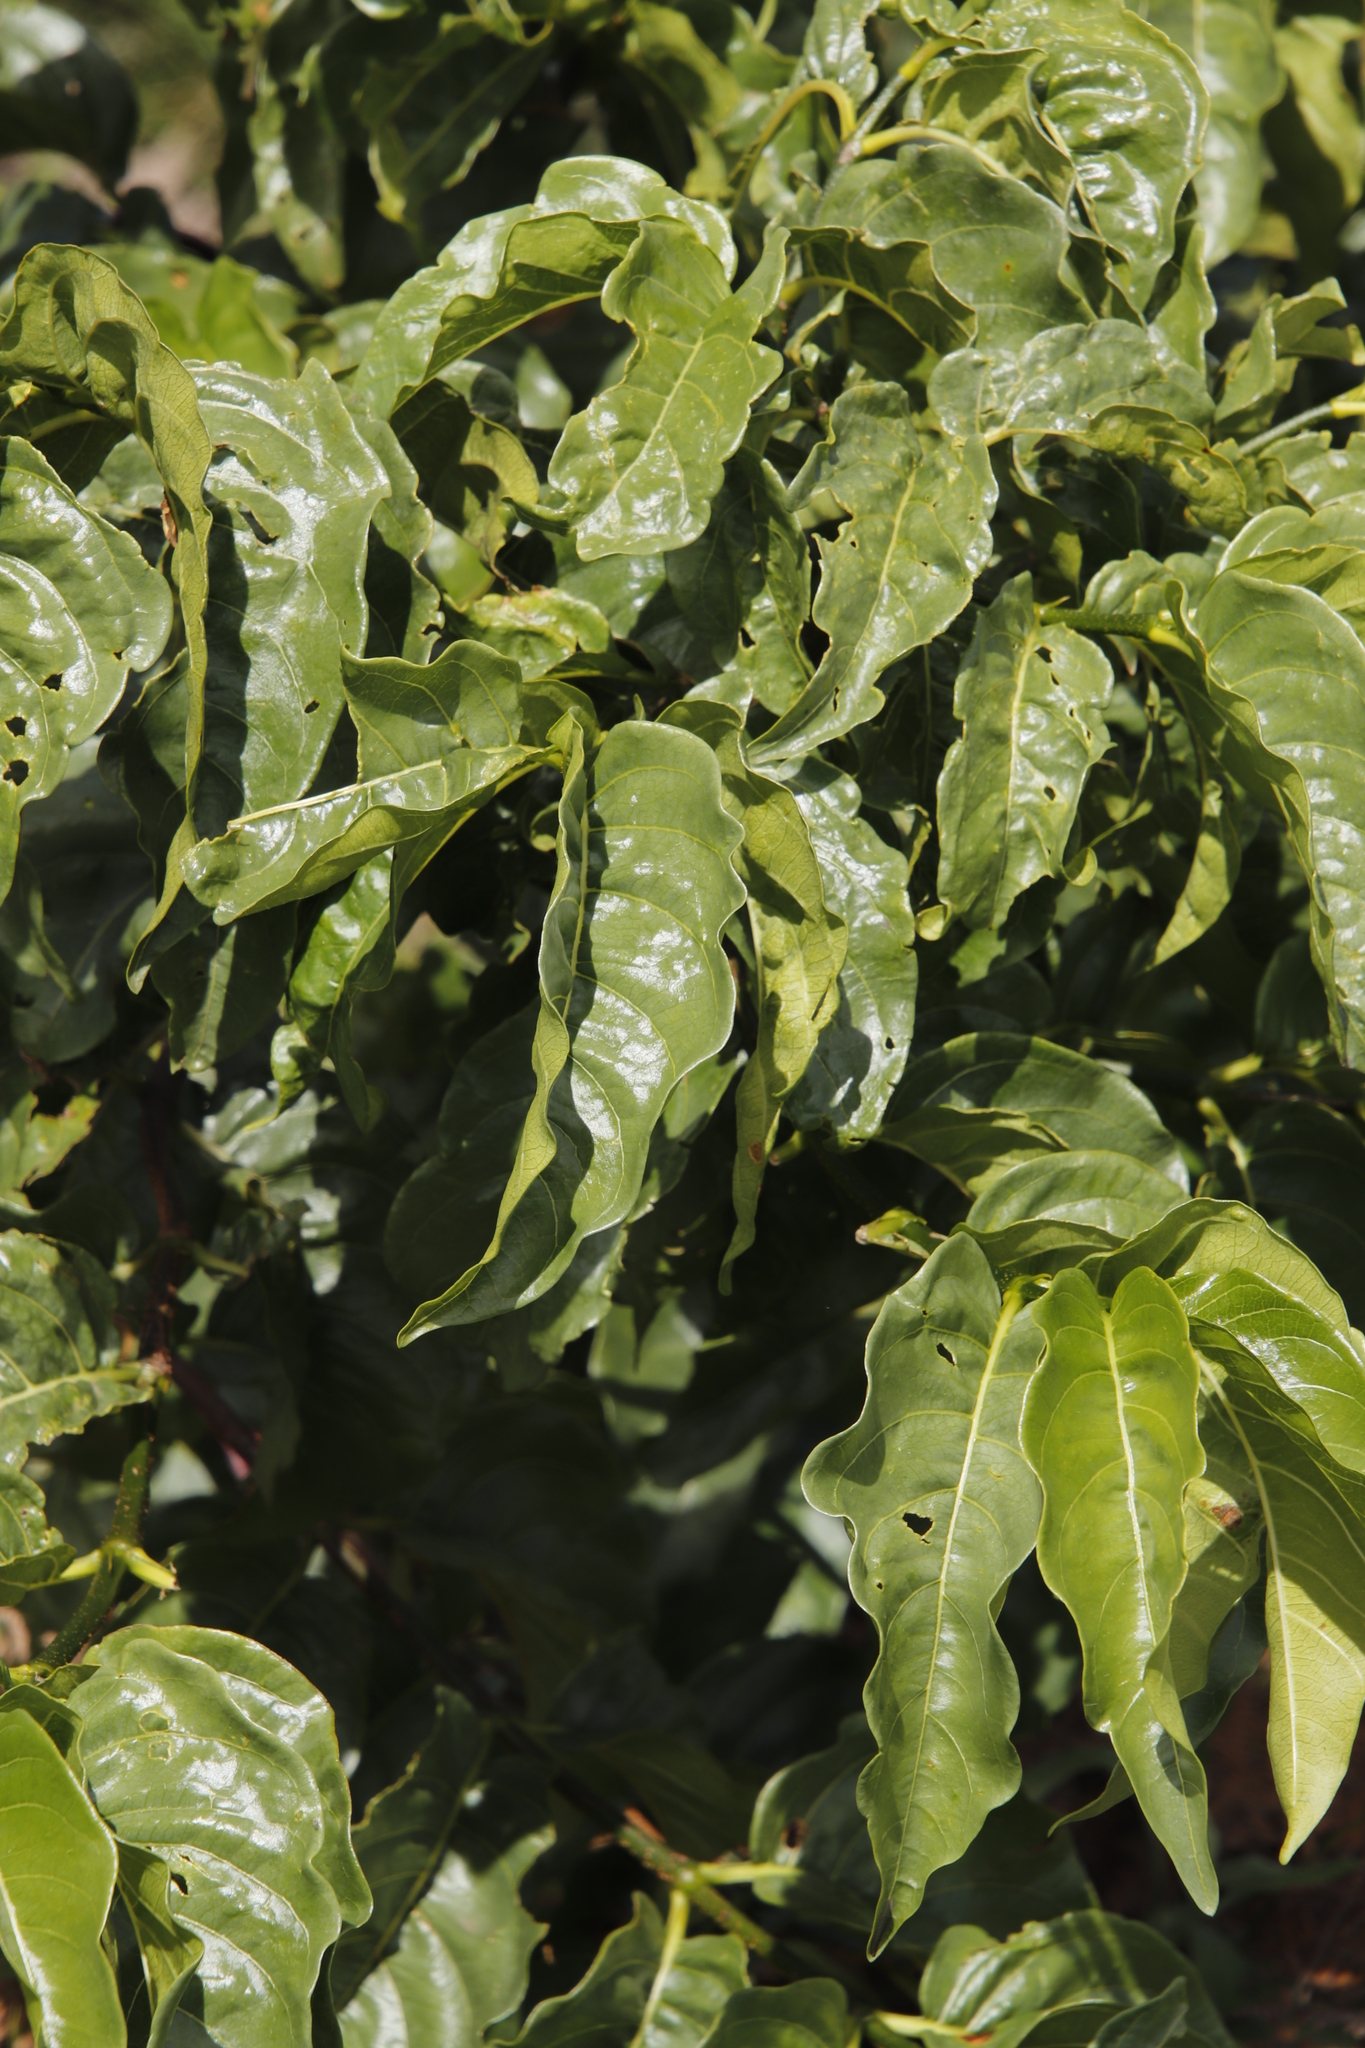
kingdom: Plantae
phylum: Tracheophyta
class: Magnoliopsida
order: Gentianales
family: Rubiaceae
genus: Vangueria
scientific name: Vangueria apiculata
